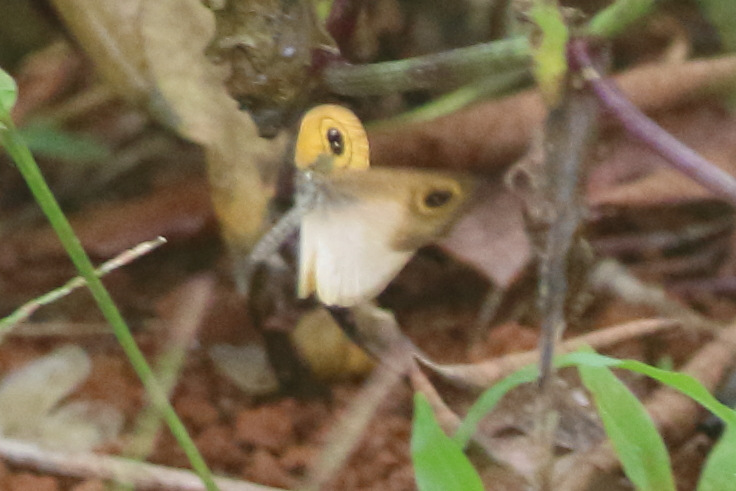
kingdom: Animalia
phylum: Arthropoda
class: Insecta
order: Lepidoptera
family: Nymphalidae
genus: Ypthima
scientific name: Ypthima sesara
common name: Common fijian ringlet
